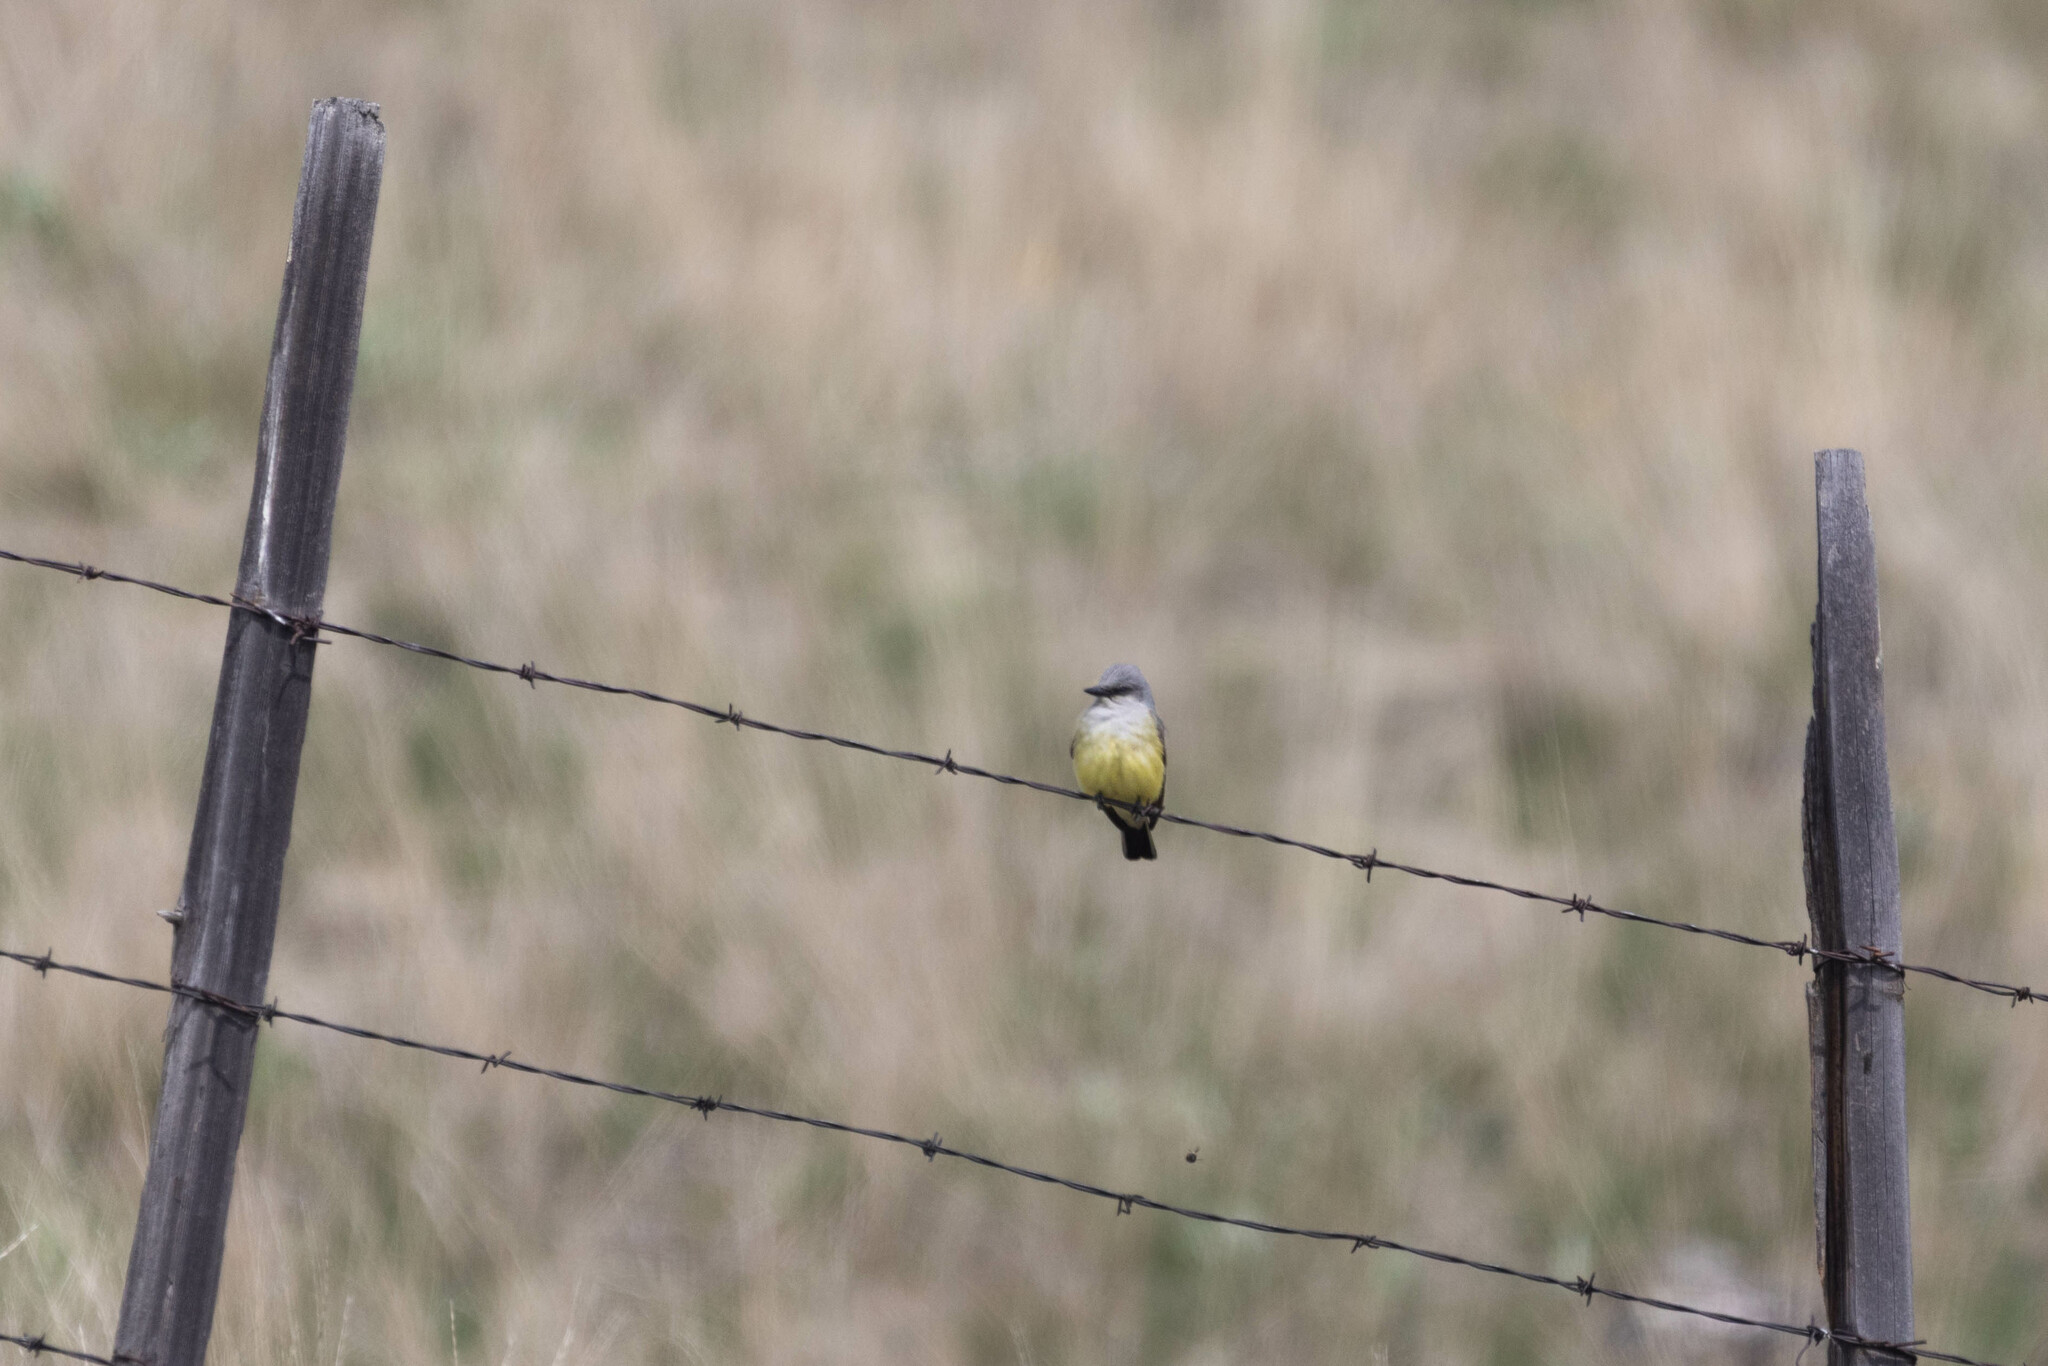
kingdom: Animalia
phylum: Chordata
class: Aves
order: Passeriformes
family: Tyrannidae
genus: Tyrannus
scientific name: Tyrannus verticalis
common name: Western kingbird
